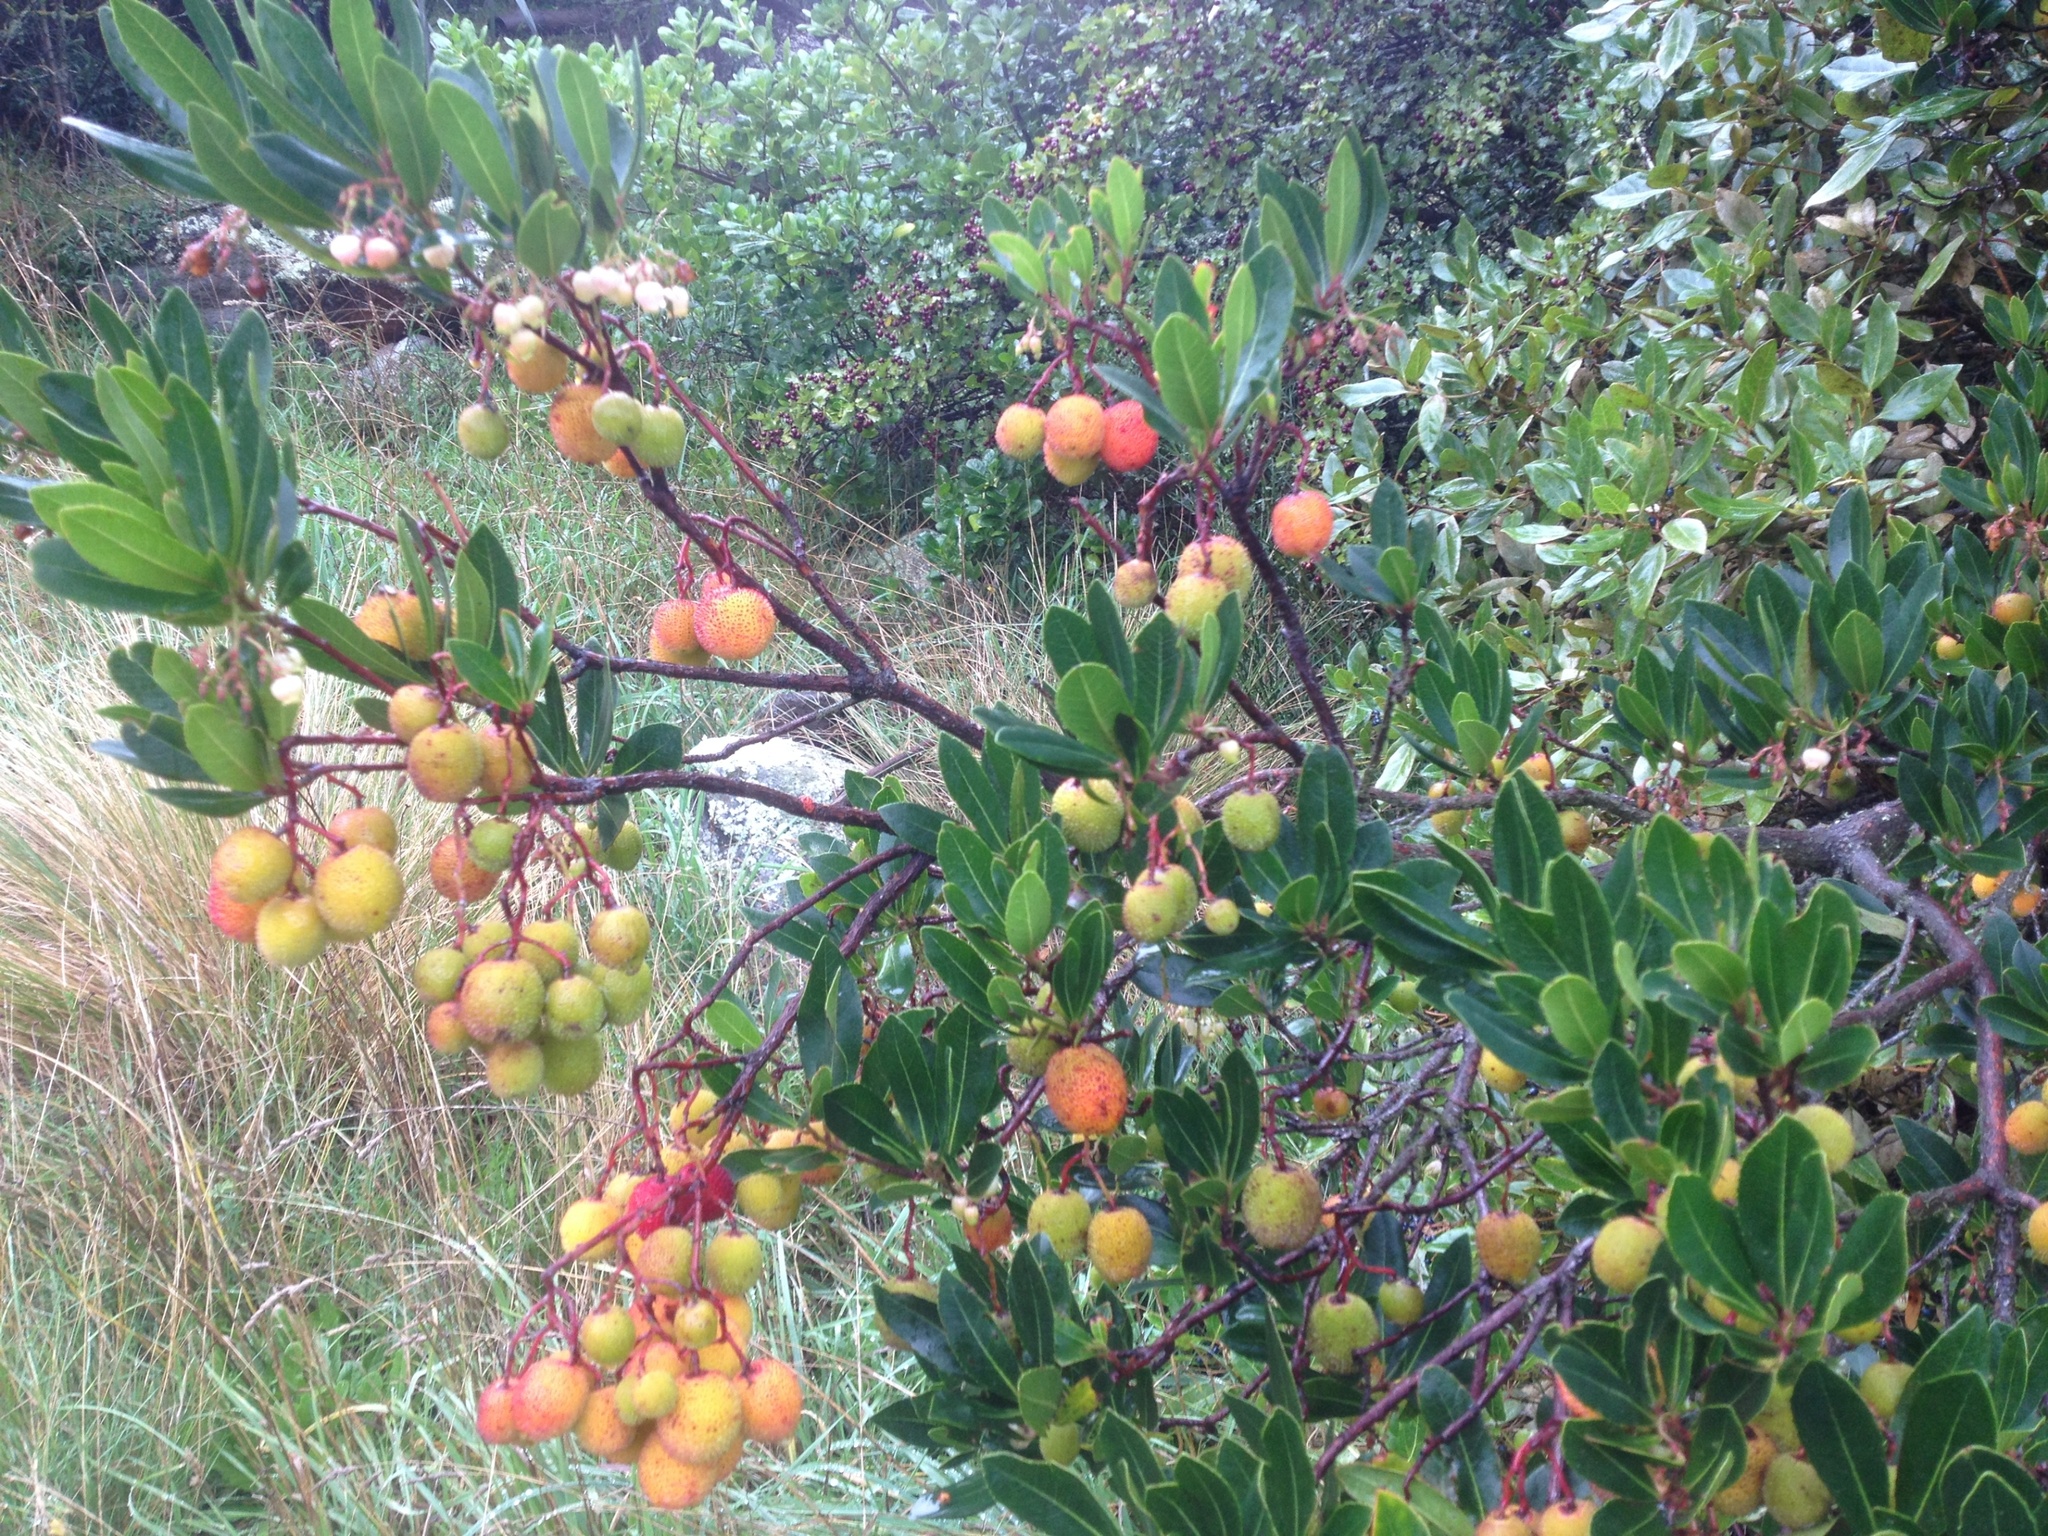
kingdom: Plantae
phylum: Tracheophyta
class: Magnoliopsida
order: Ericales
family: Ericaceae
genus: Arbutus
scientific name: Arbutus unedo
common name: Strawberry-tree
